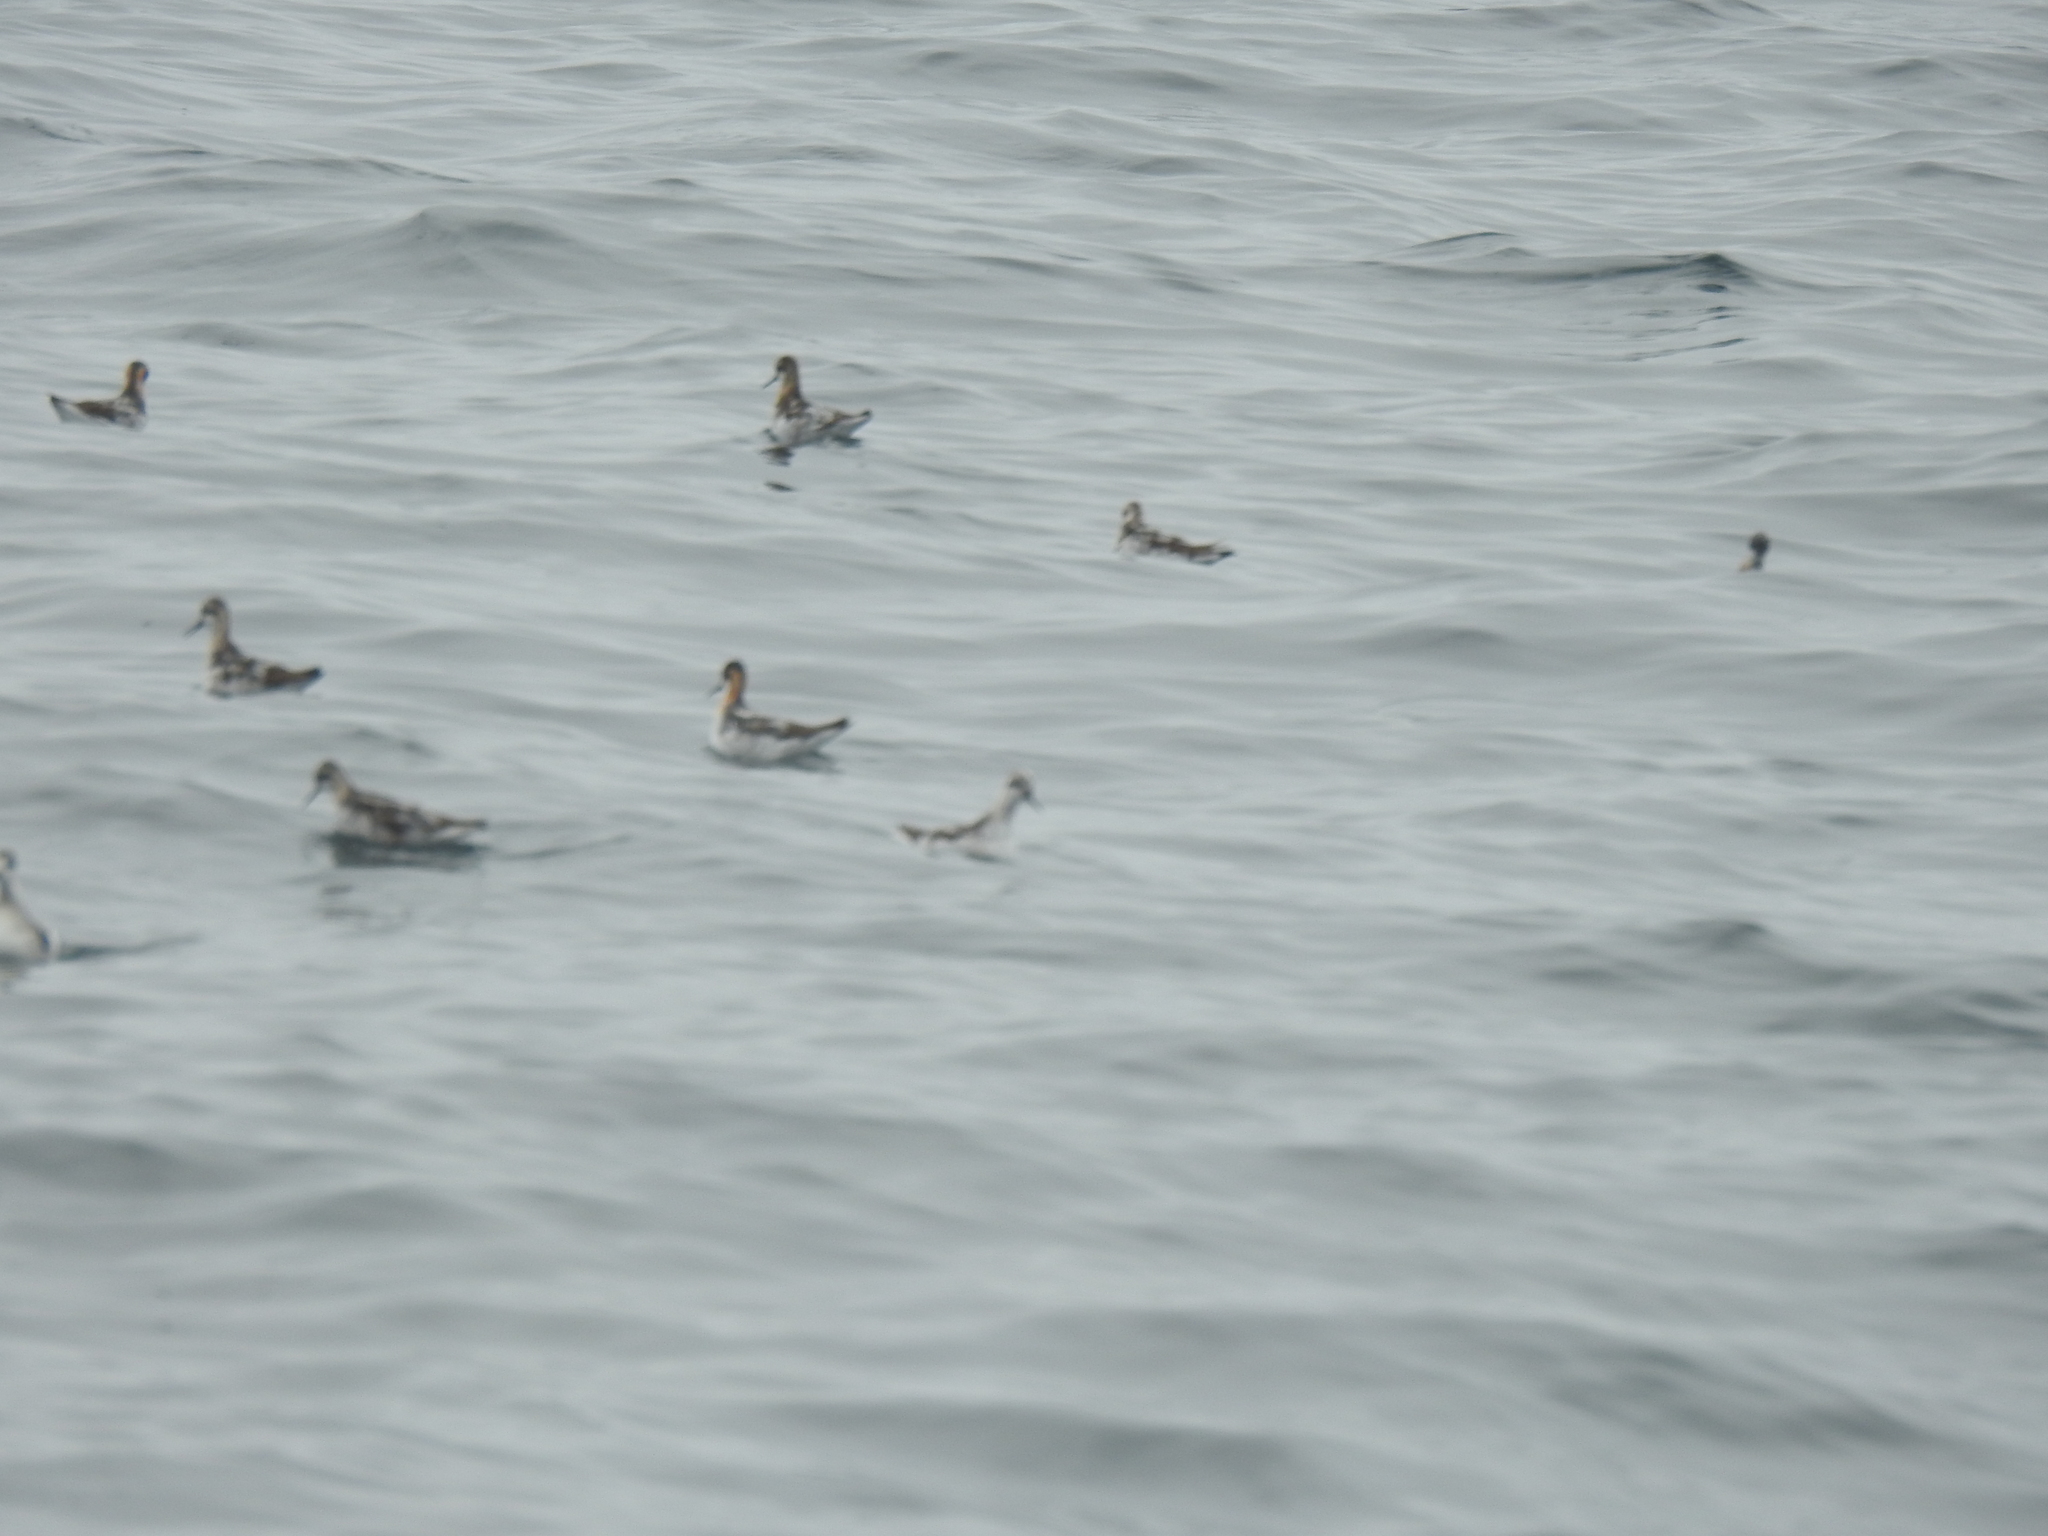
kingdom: Animalia
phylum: Chordata
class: Aves
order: Charadriiformes
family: Scolopacidae
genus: Phalaropus
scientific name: Phalaropus lobatus
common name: Red-necked phalarope
